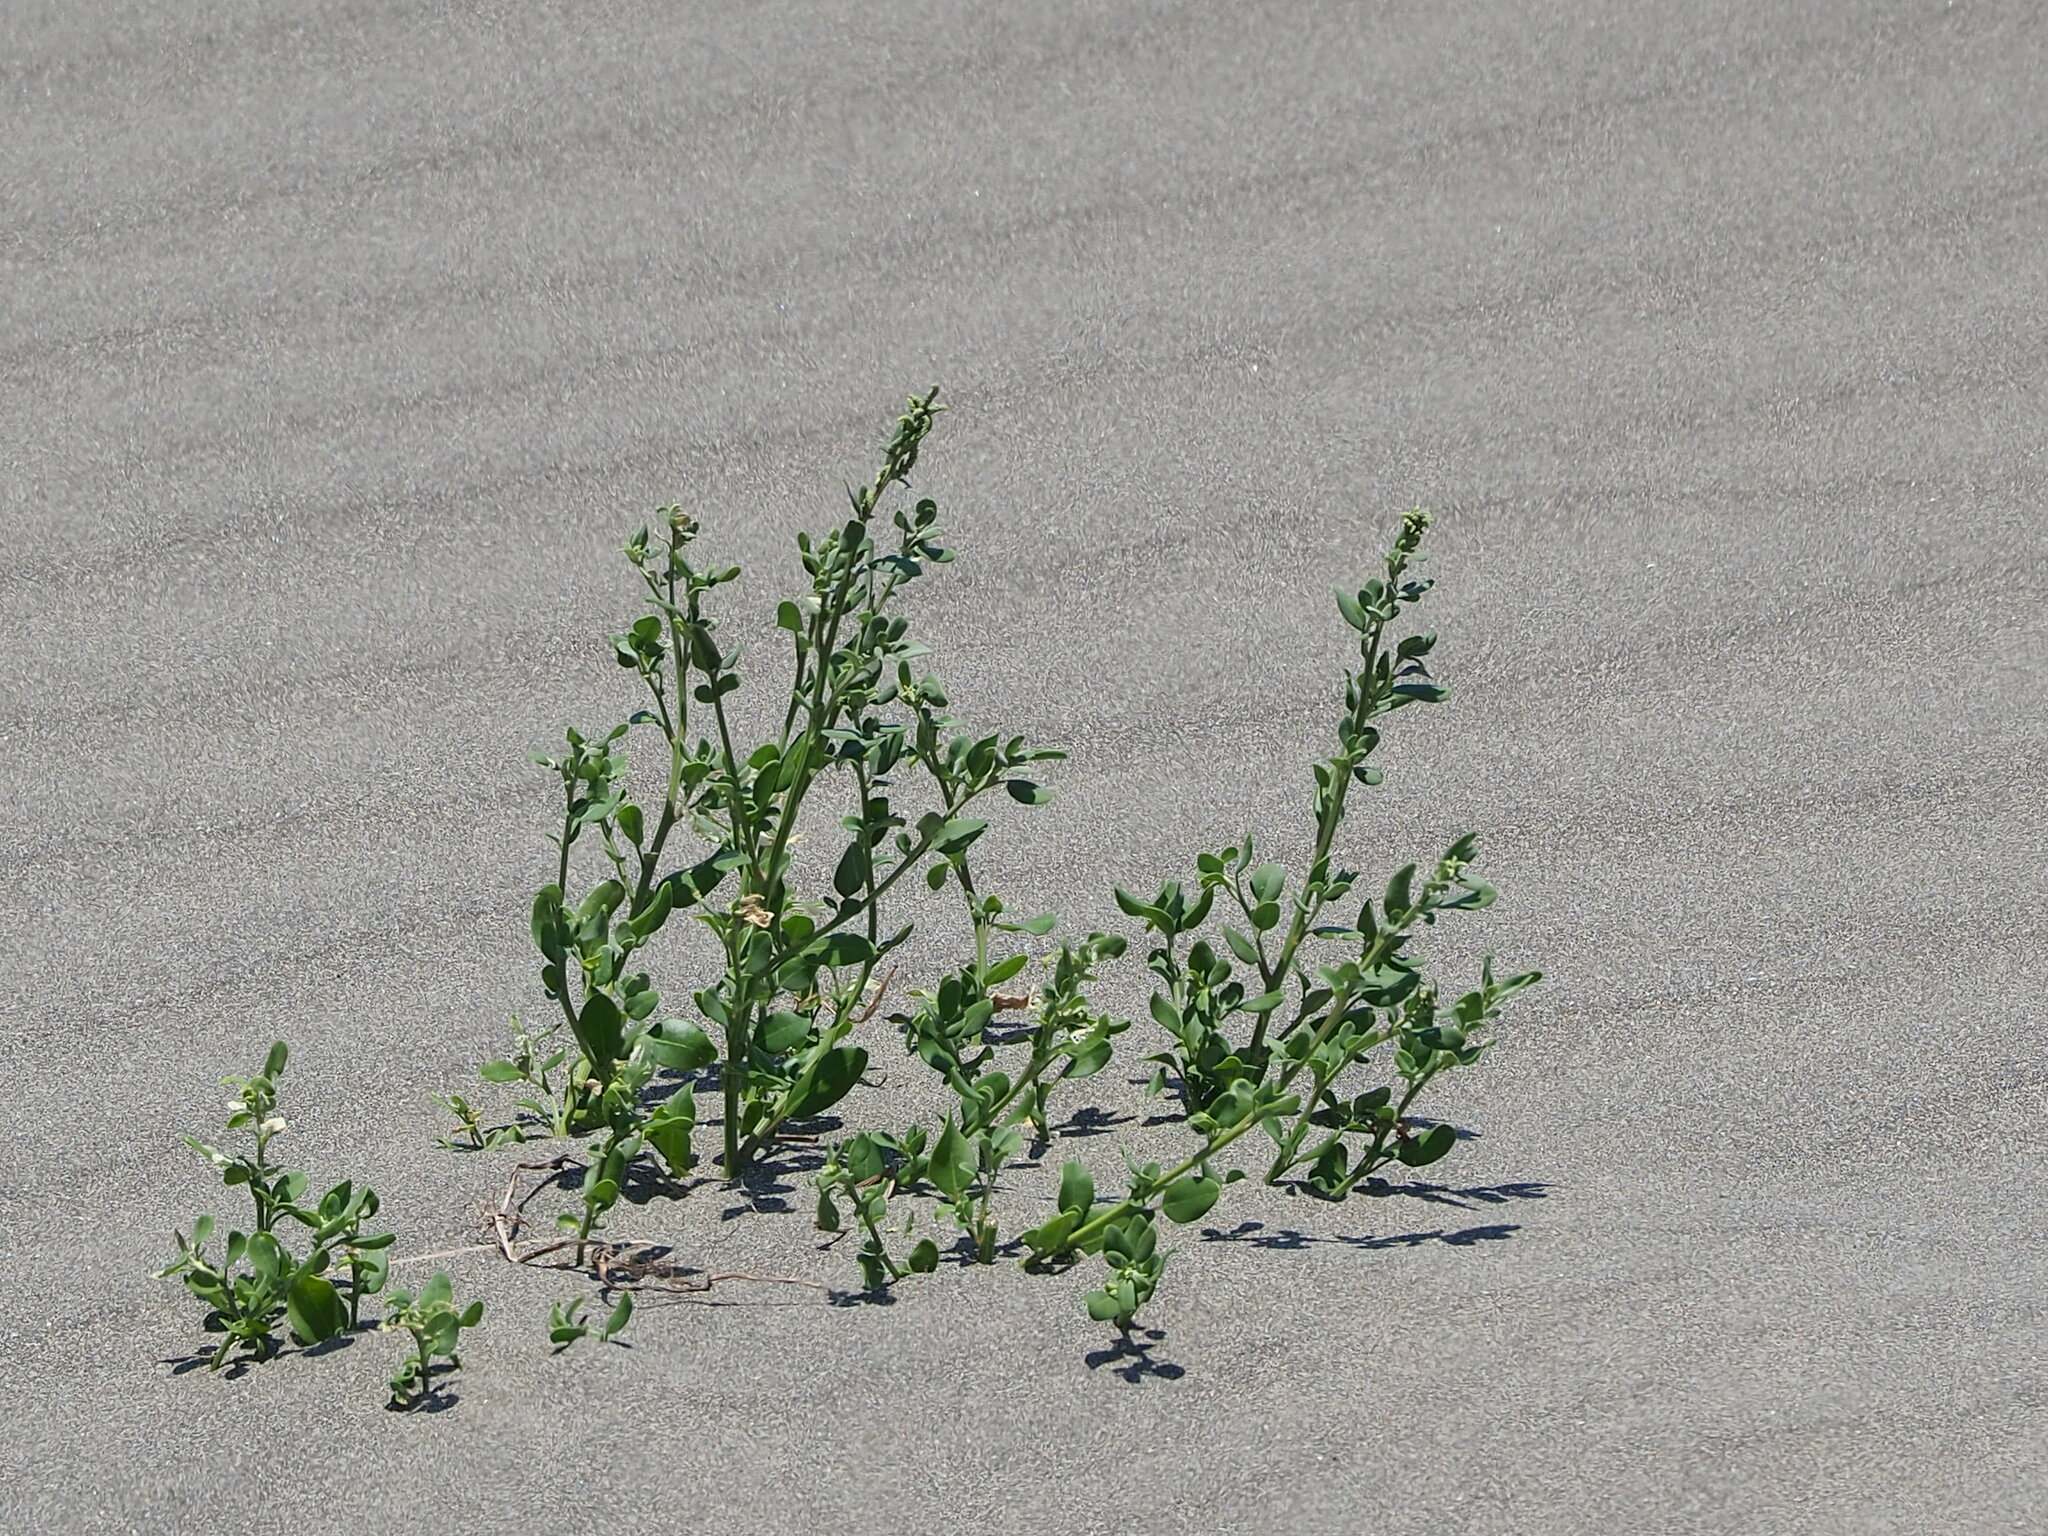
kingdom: Plantae
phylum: Tracheophyta
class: Magnoliopsida
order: Caryophyllales
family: Amaranthaceae
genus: Chenopodium
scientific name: Chenopodium acuminatum
